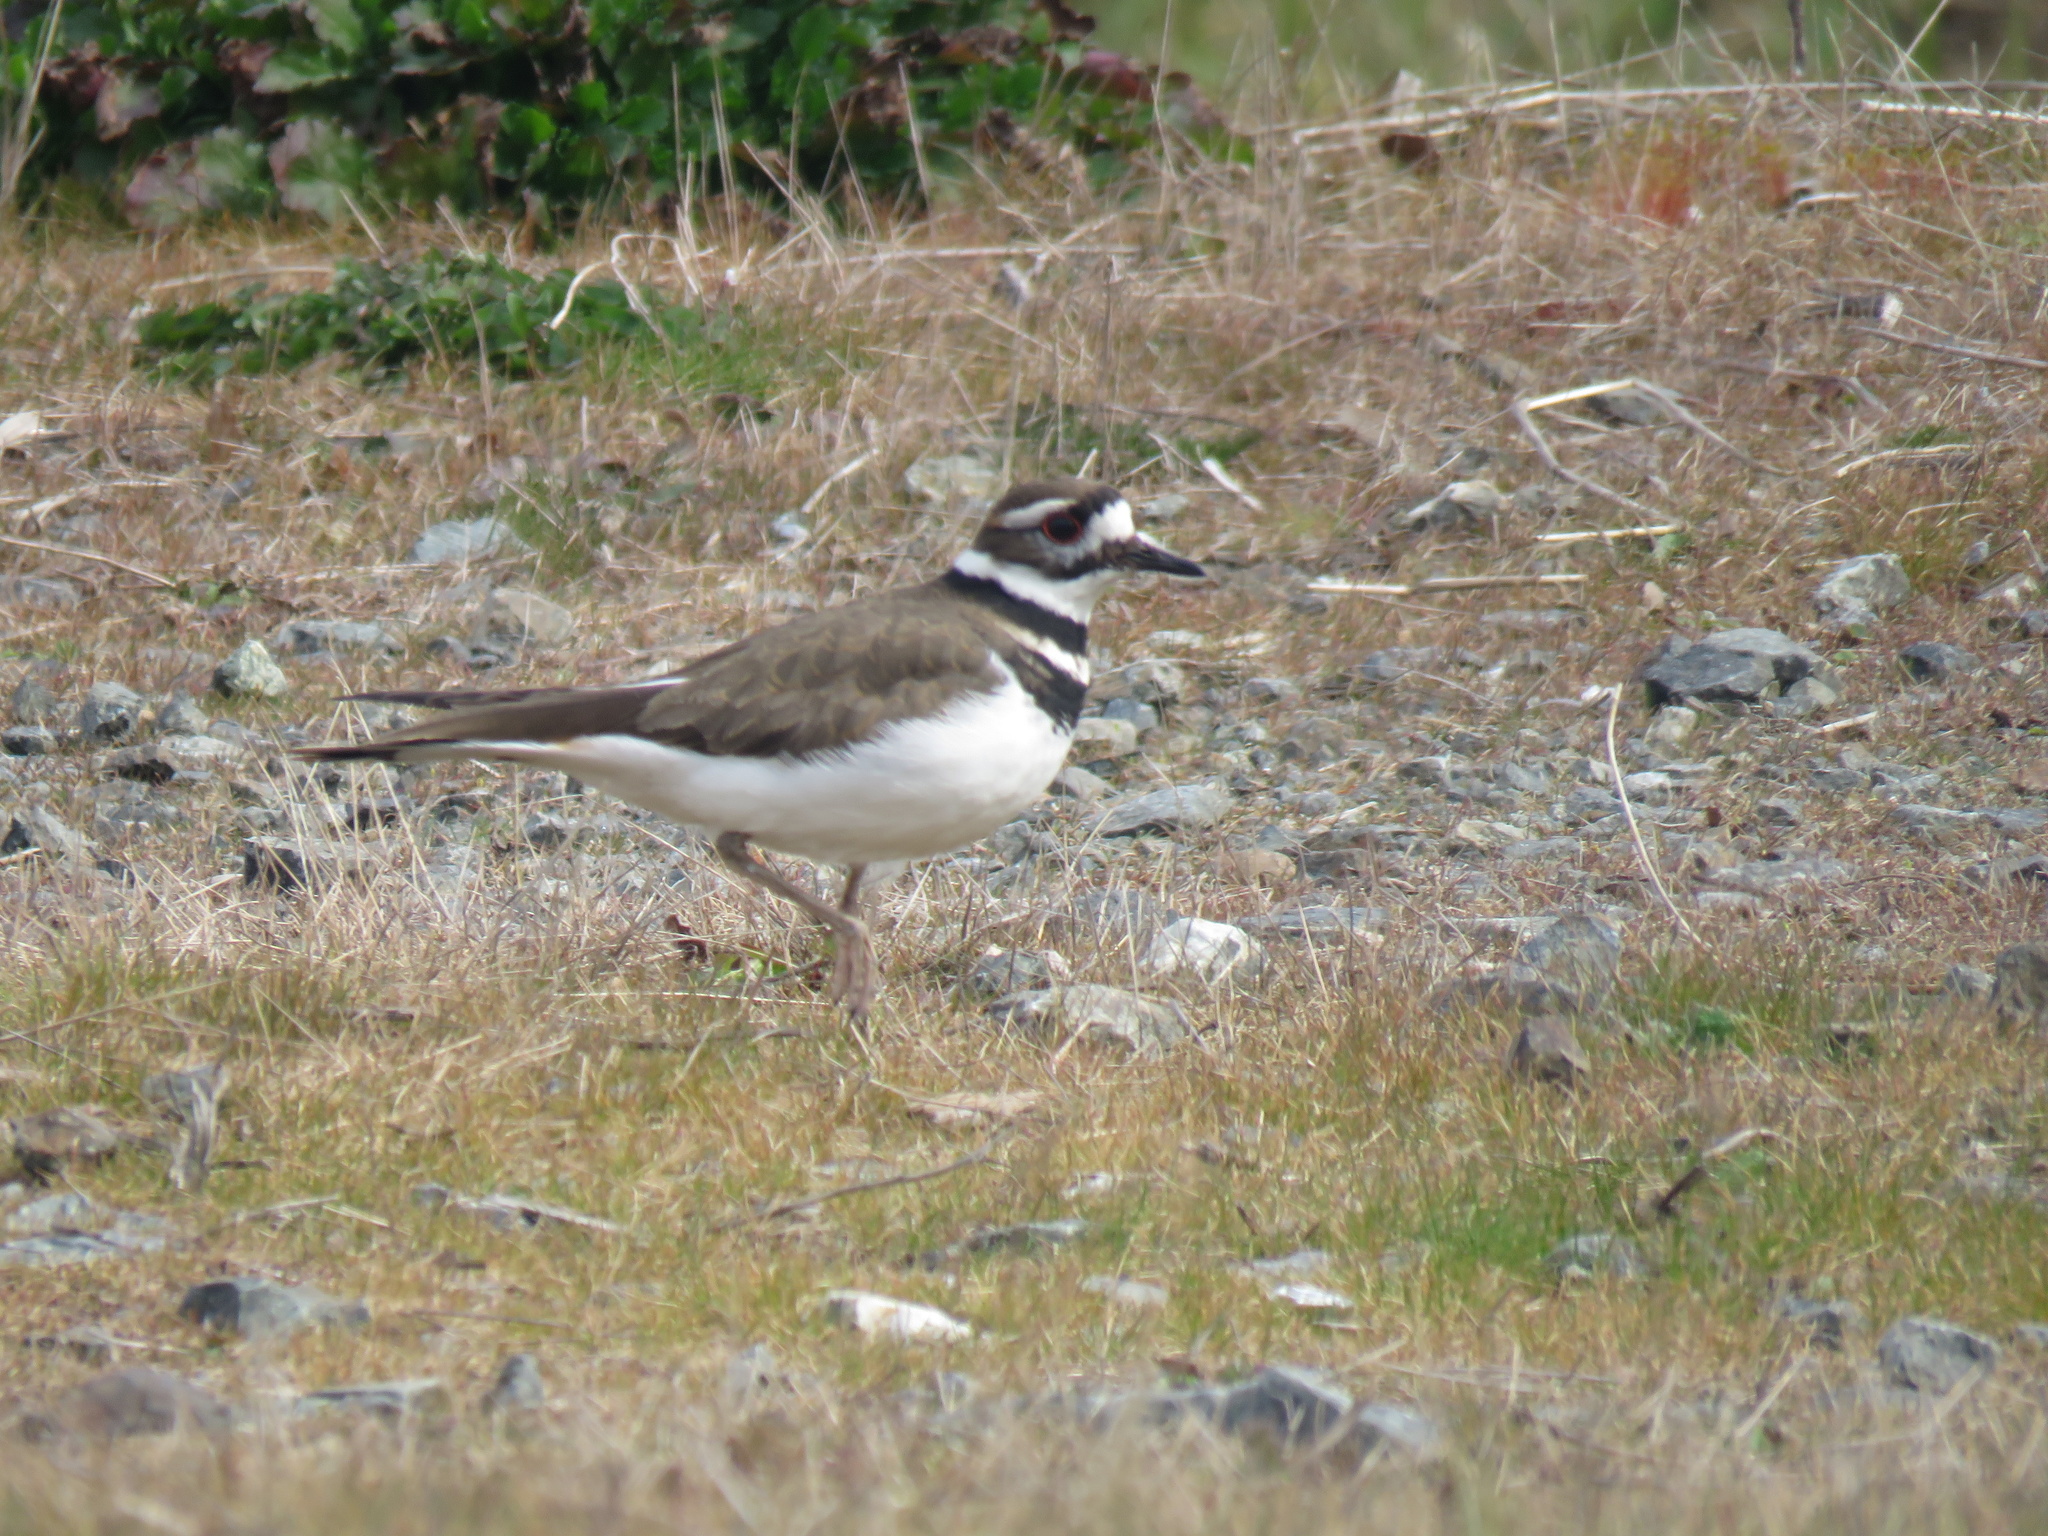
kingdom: Animalia
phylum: Chordata
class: Aves
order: Charadriiformes
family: Charadriidae
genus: Charadrius
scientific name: Charadrius vociferus
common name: Killdeer
